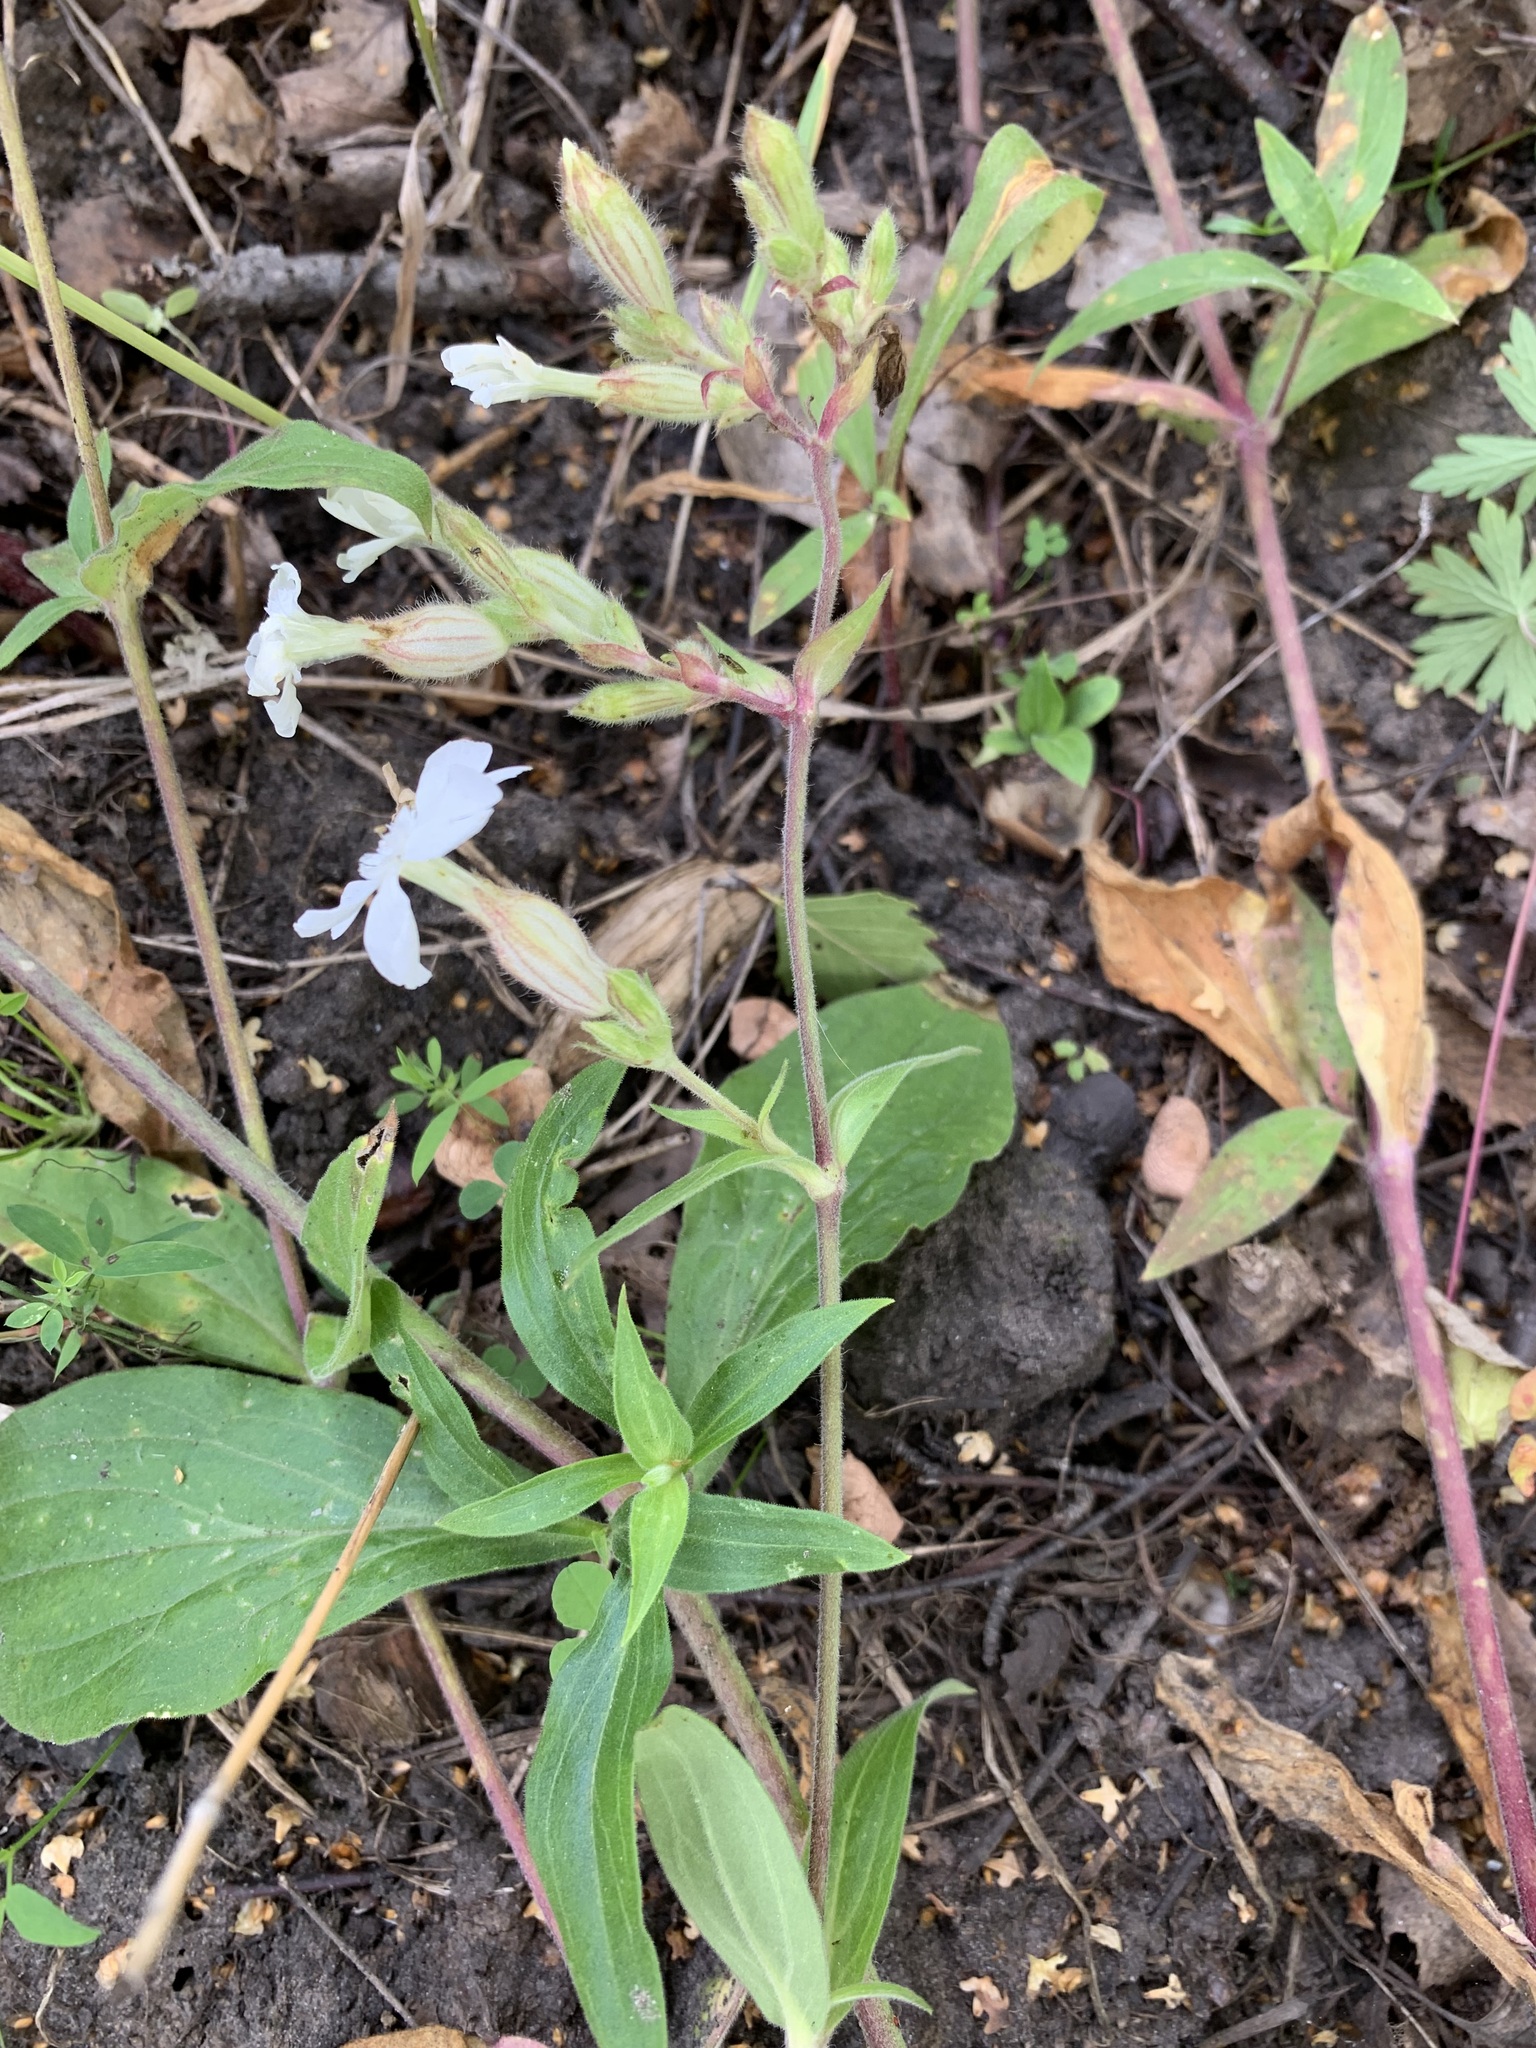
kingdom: Plantae
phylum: Tracheophyta
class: Magnoliopsida
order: Caryophyllales
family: Caryophyllaceae
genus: Silene
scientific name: Silene latifolia
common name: White campion
